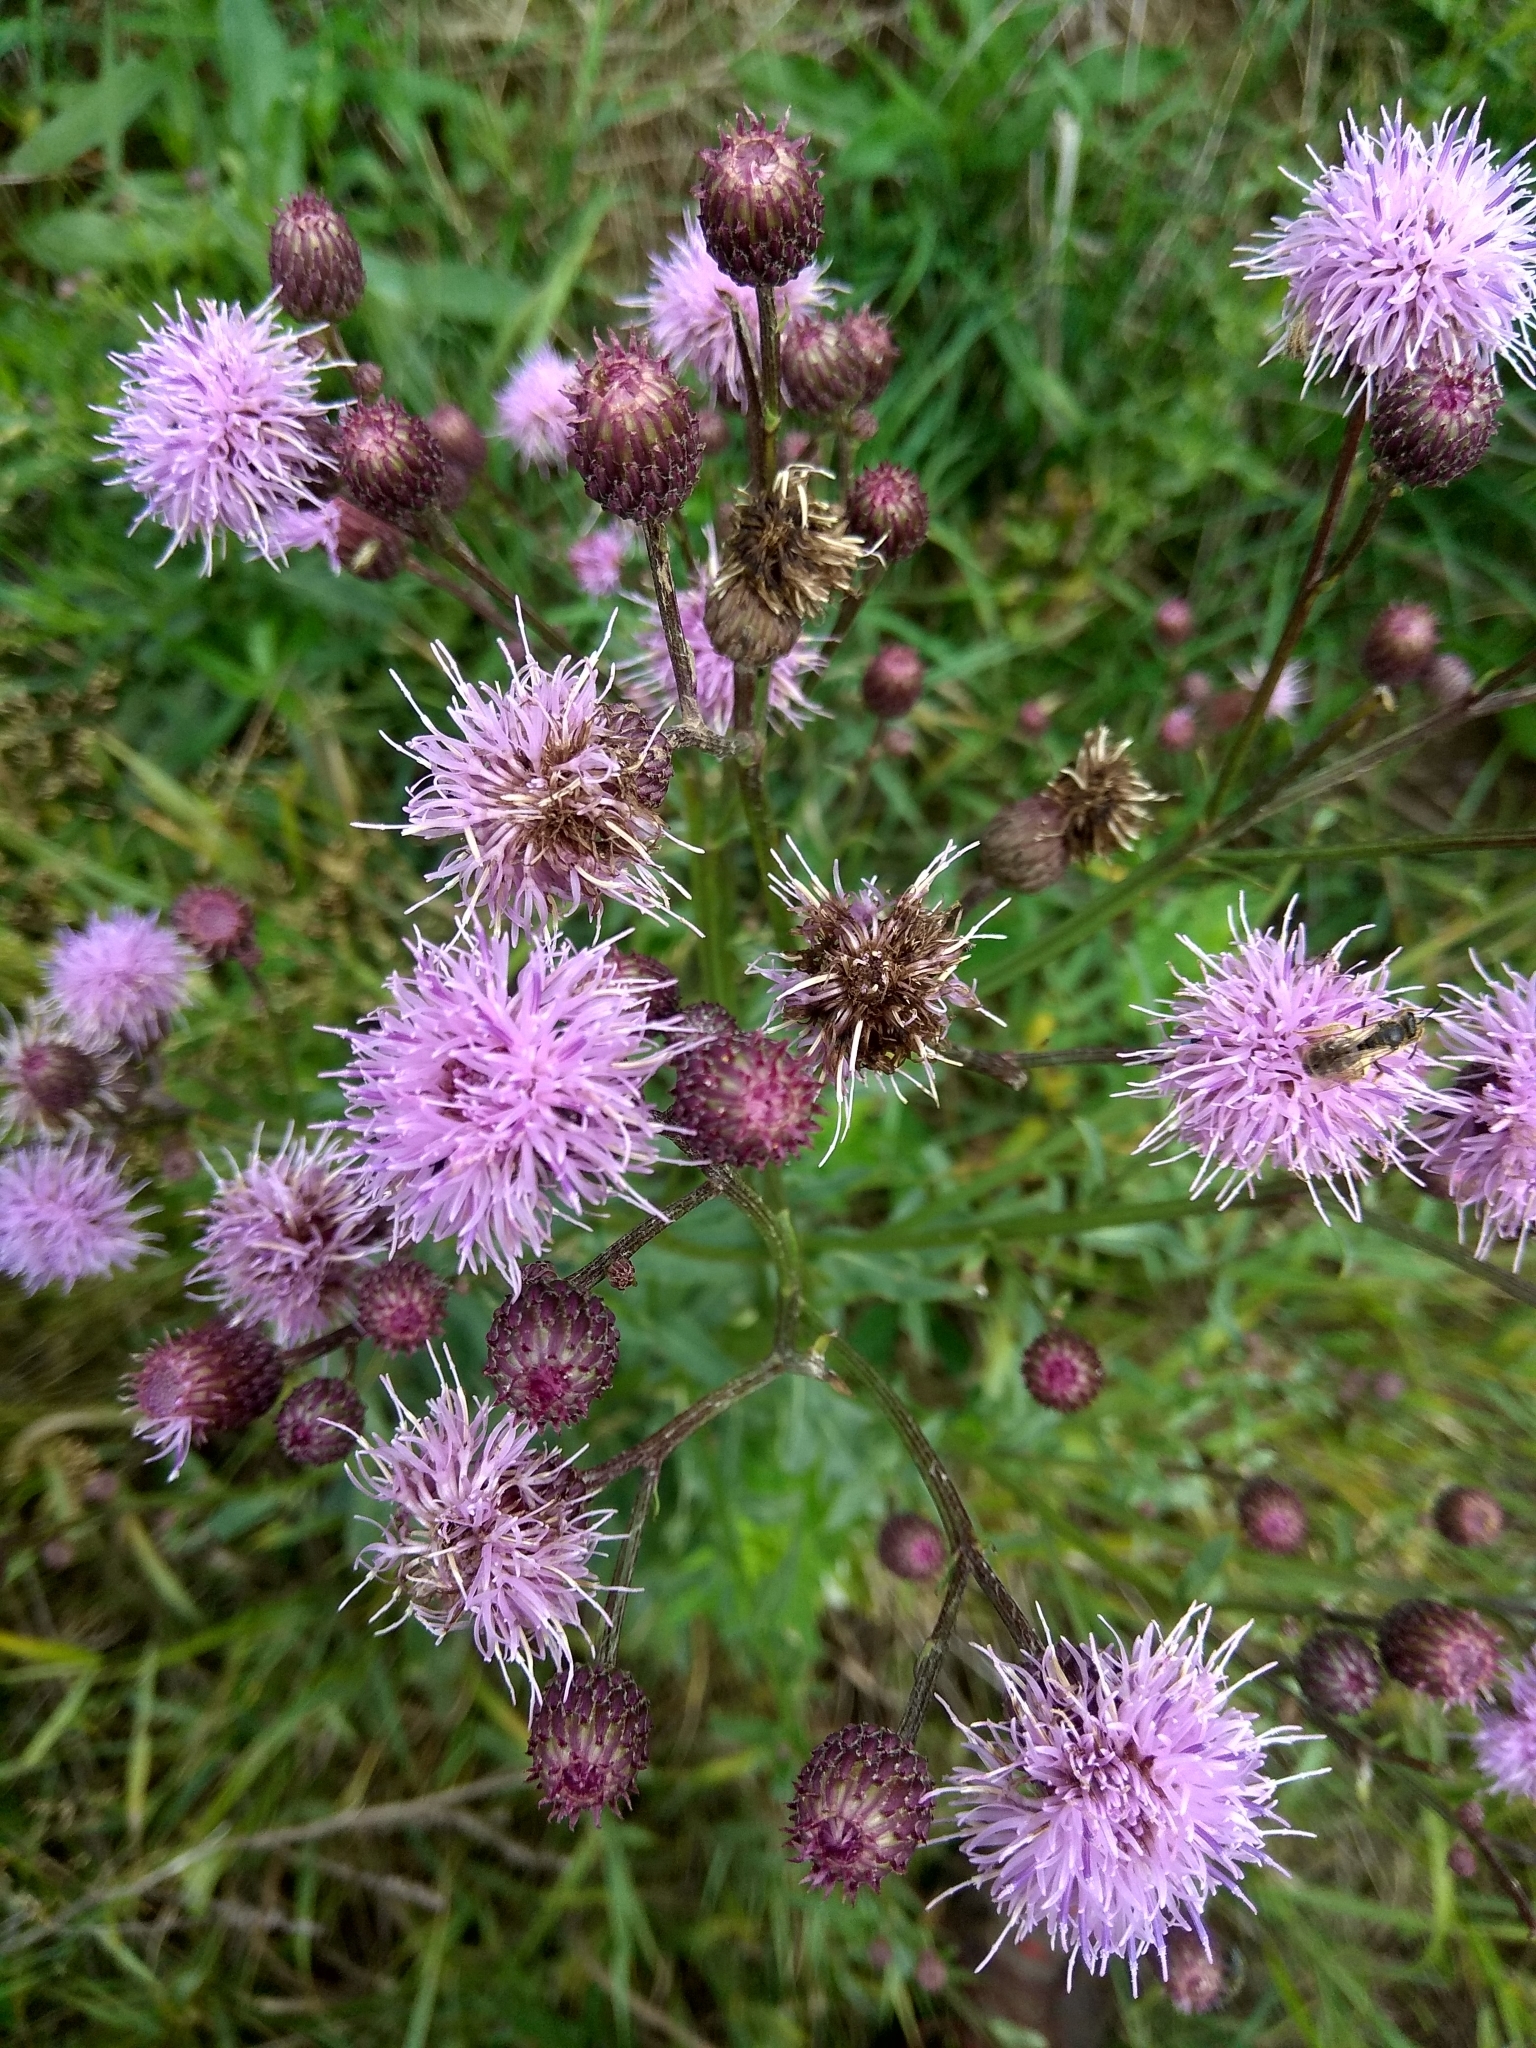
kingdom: Plantae
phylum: Tracheophyta
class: Magnoliopsida
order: Asterales
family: Asteraceae
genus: Cirsium
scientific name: Cirsium arvense
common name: Creeping thistle
